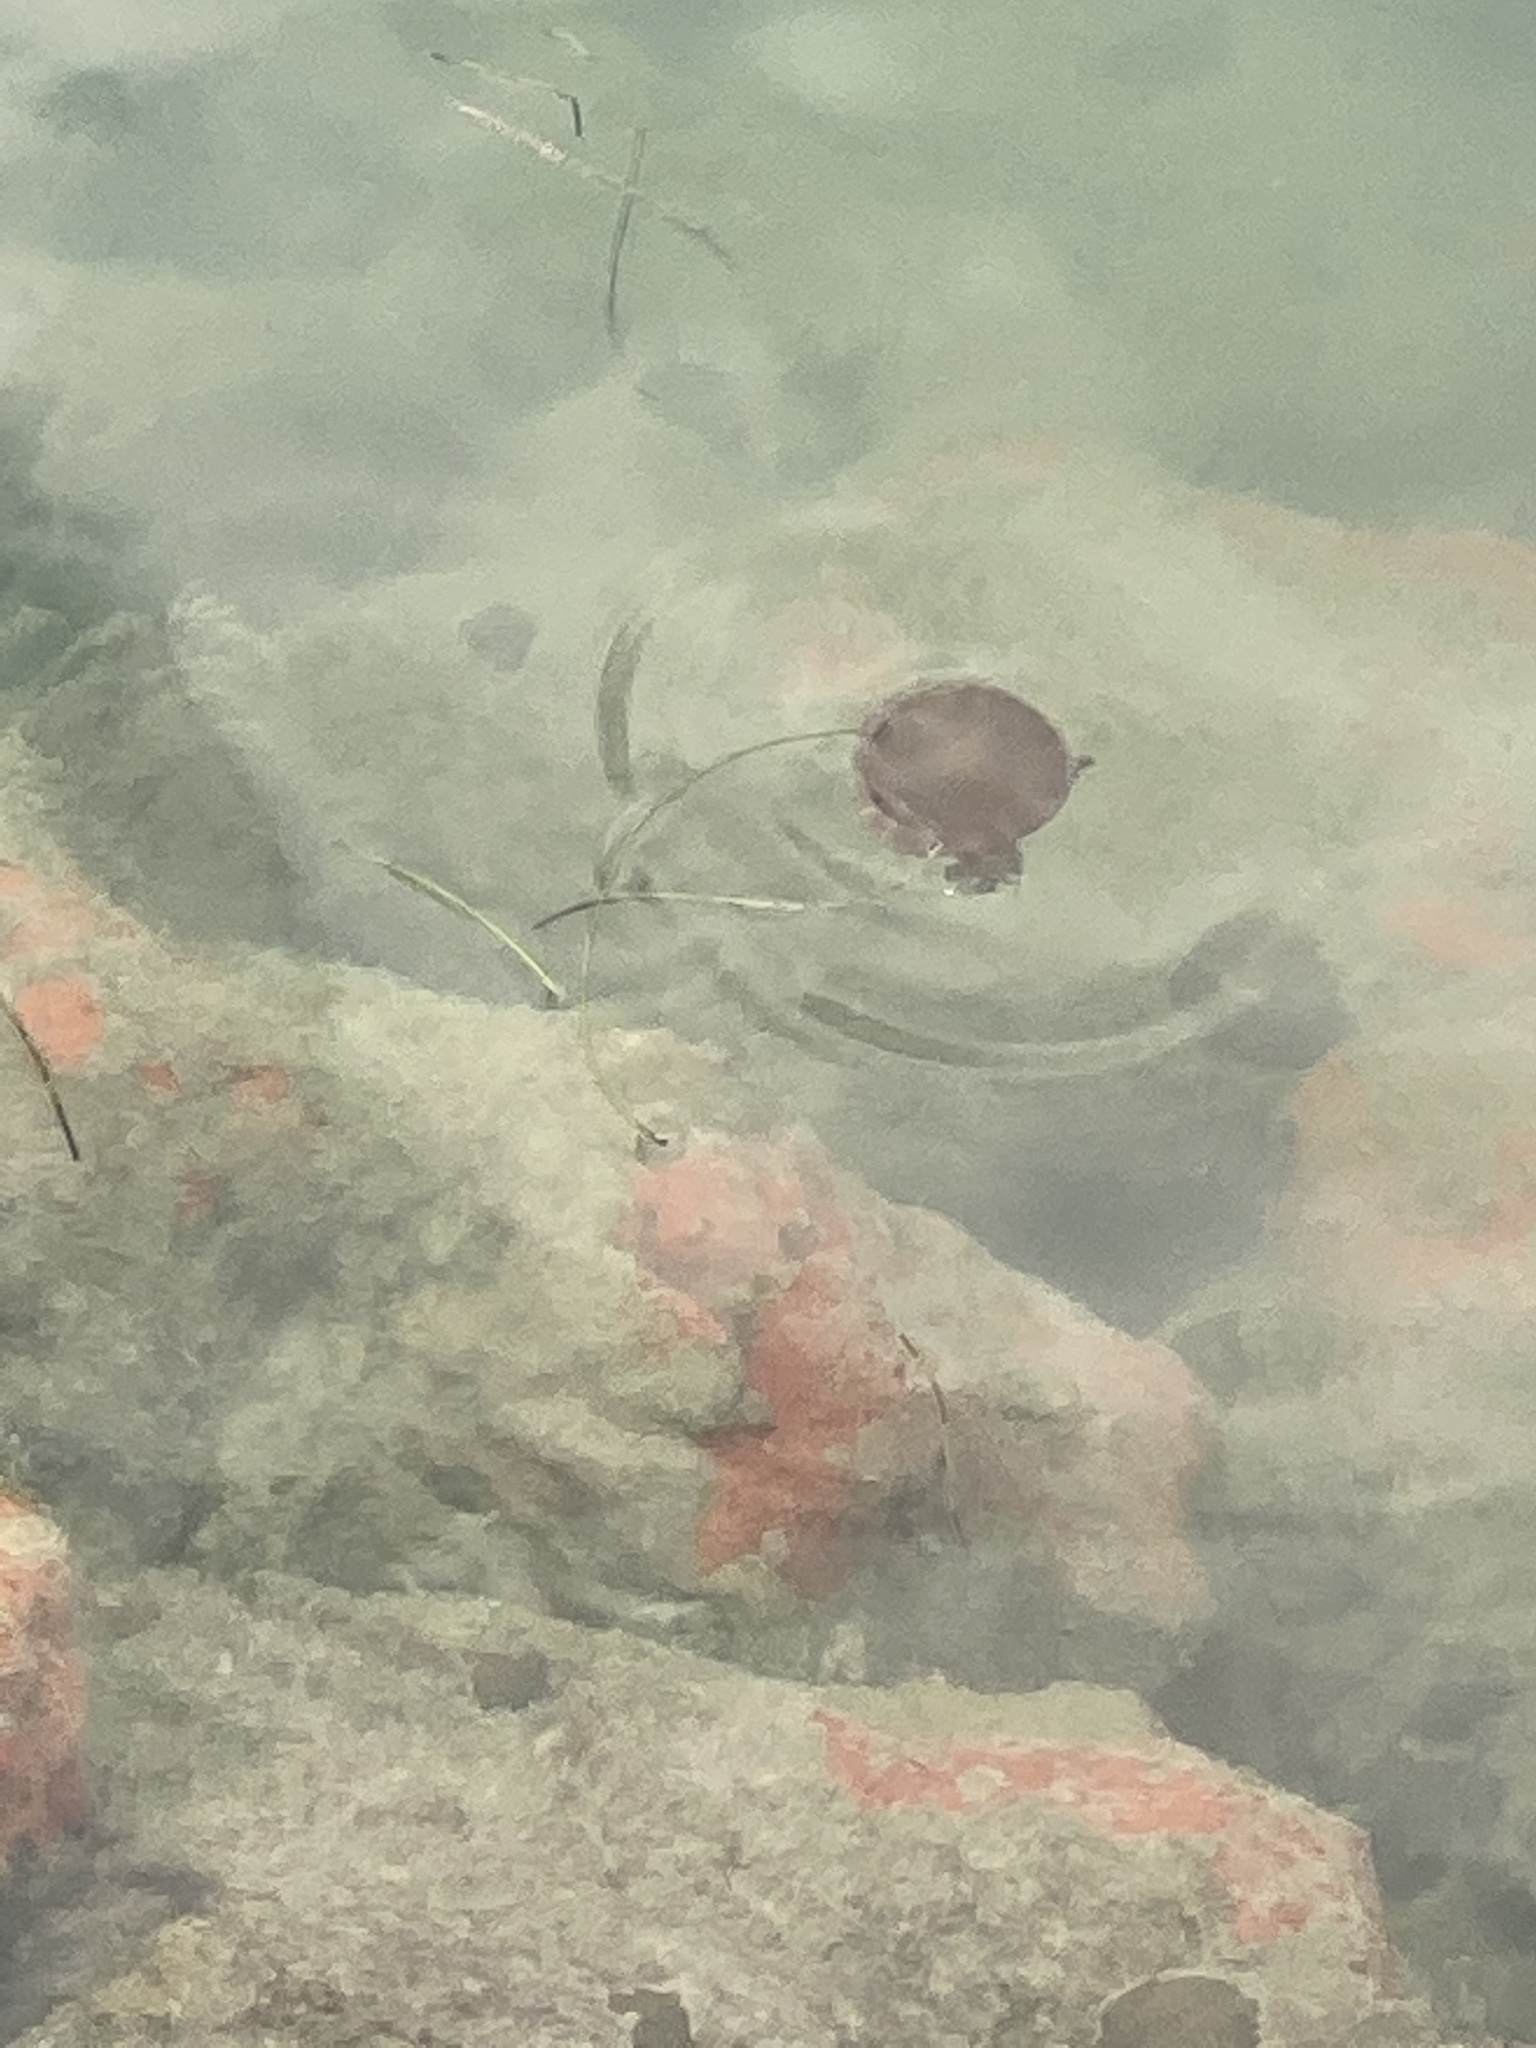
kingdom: Animalia
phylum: Cnidaria
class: Scyphozoa
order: Rhizostomeae
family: Cassiopeidae
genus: Cassiopea
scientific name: Cassiopea andromeda
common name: Upside-down jellyfish
